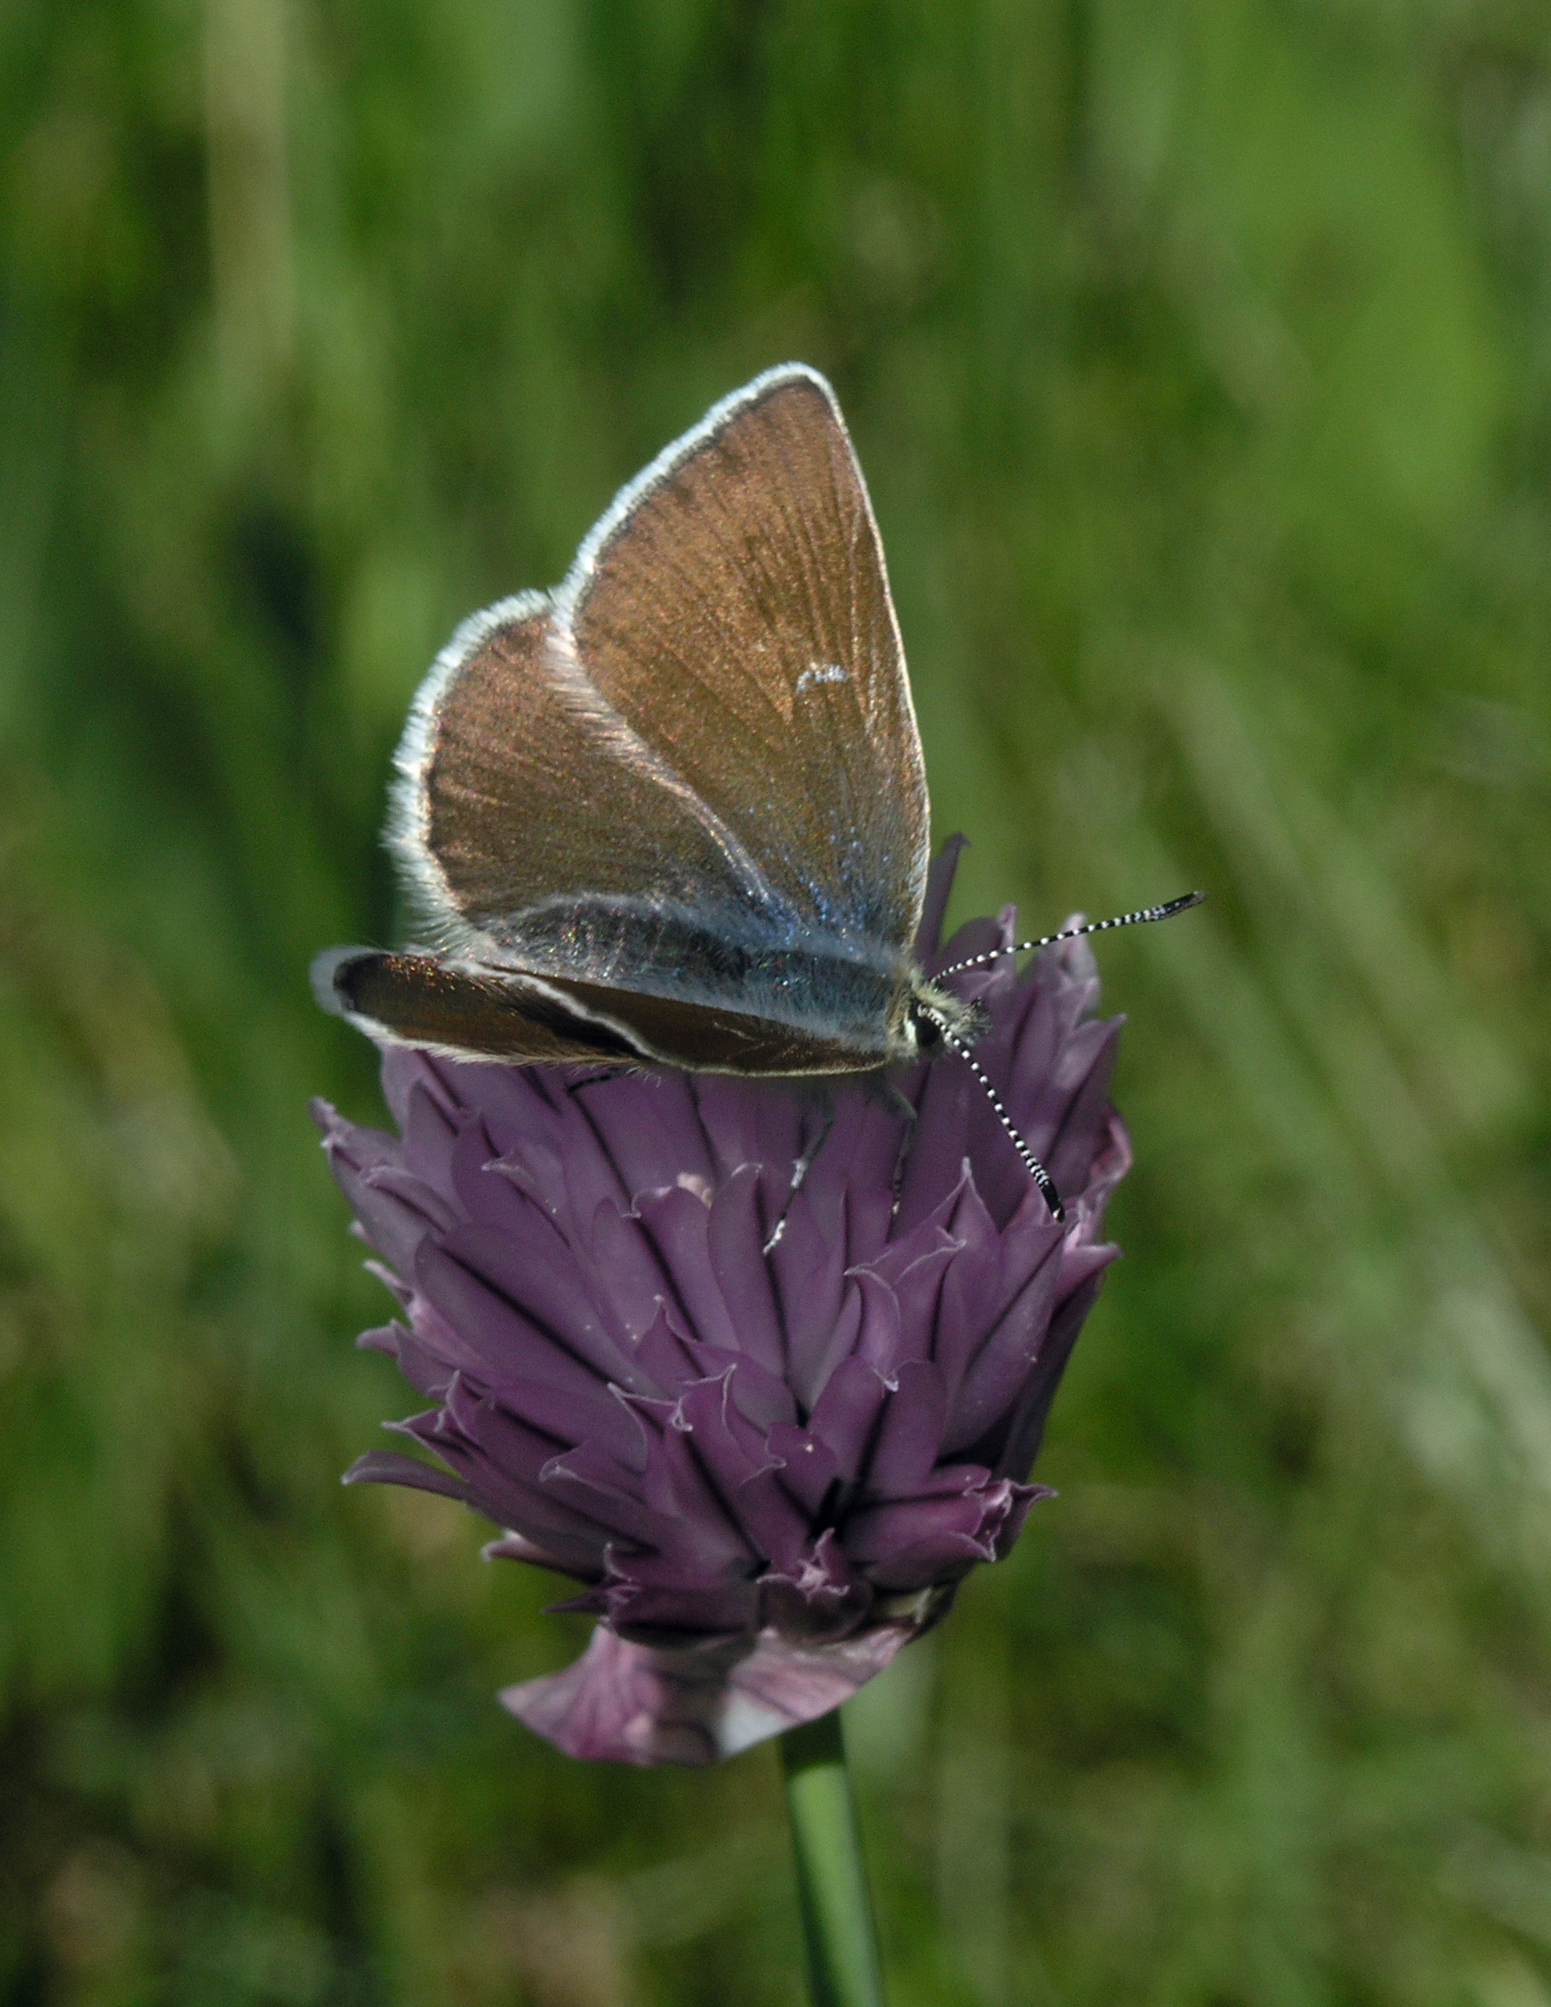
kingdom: Animalia
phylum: Arthropoda
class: Insecta
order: Lepidoptera
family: Lycaenidae
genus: Albulina
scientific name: Albulina orbitulus
